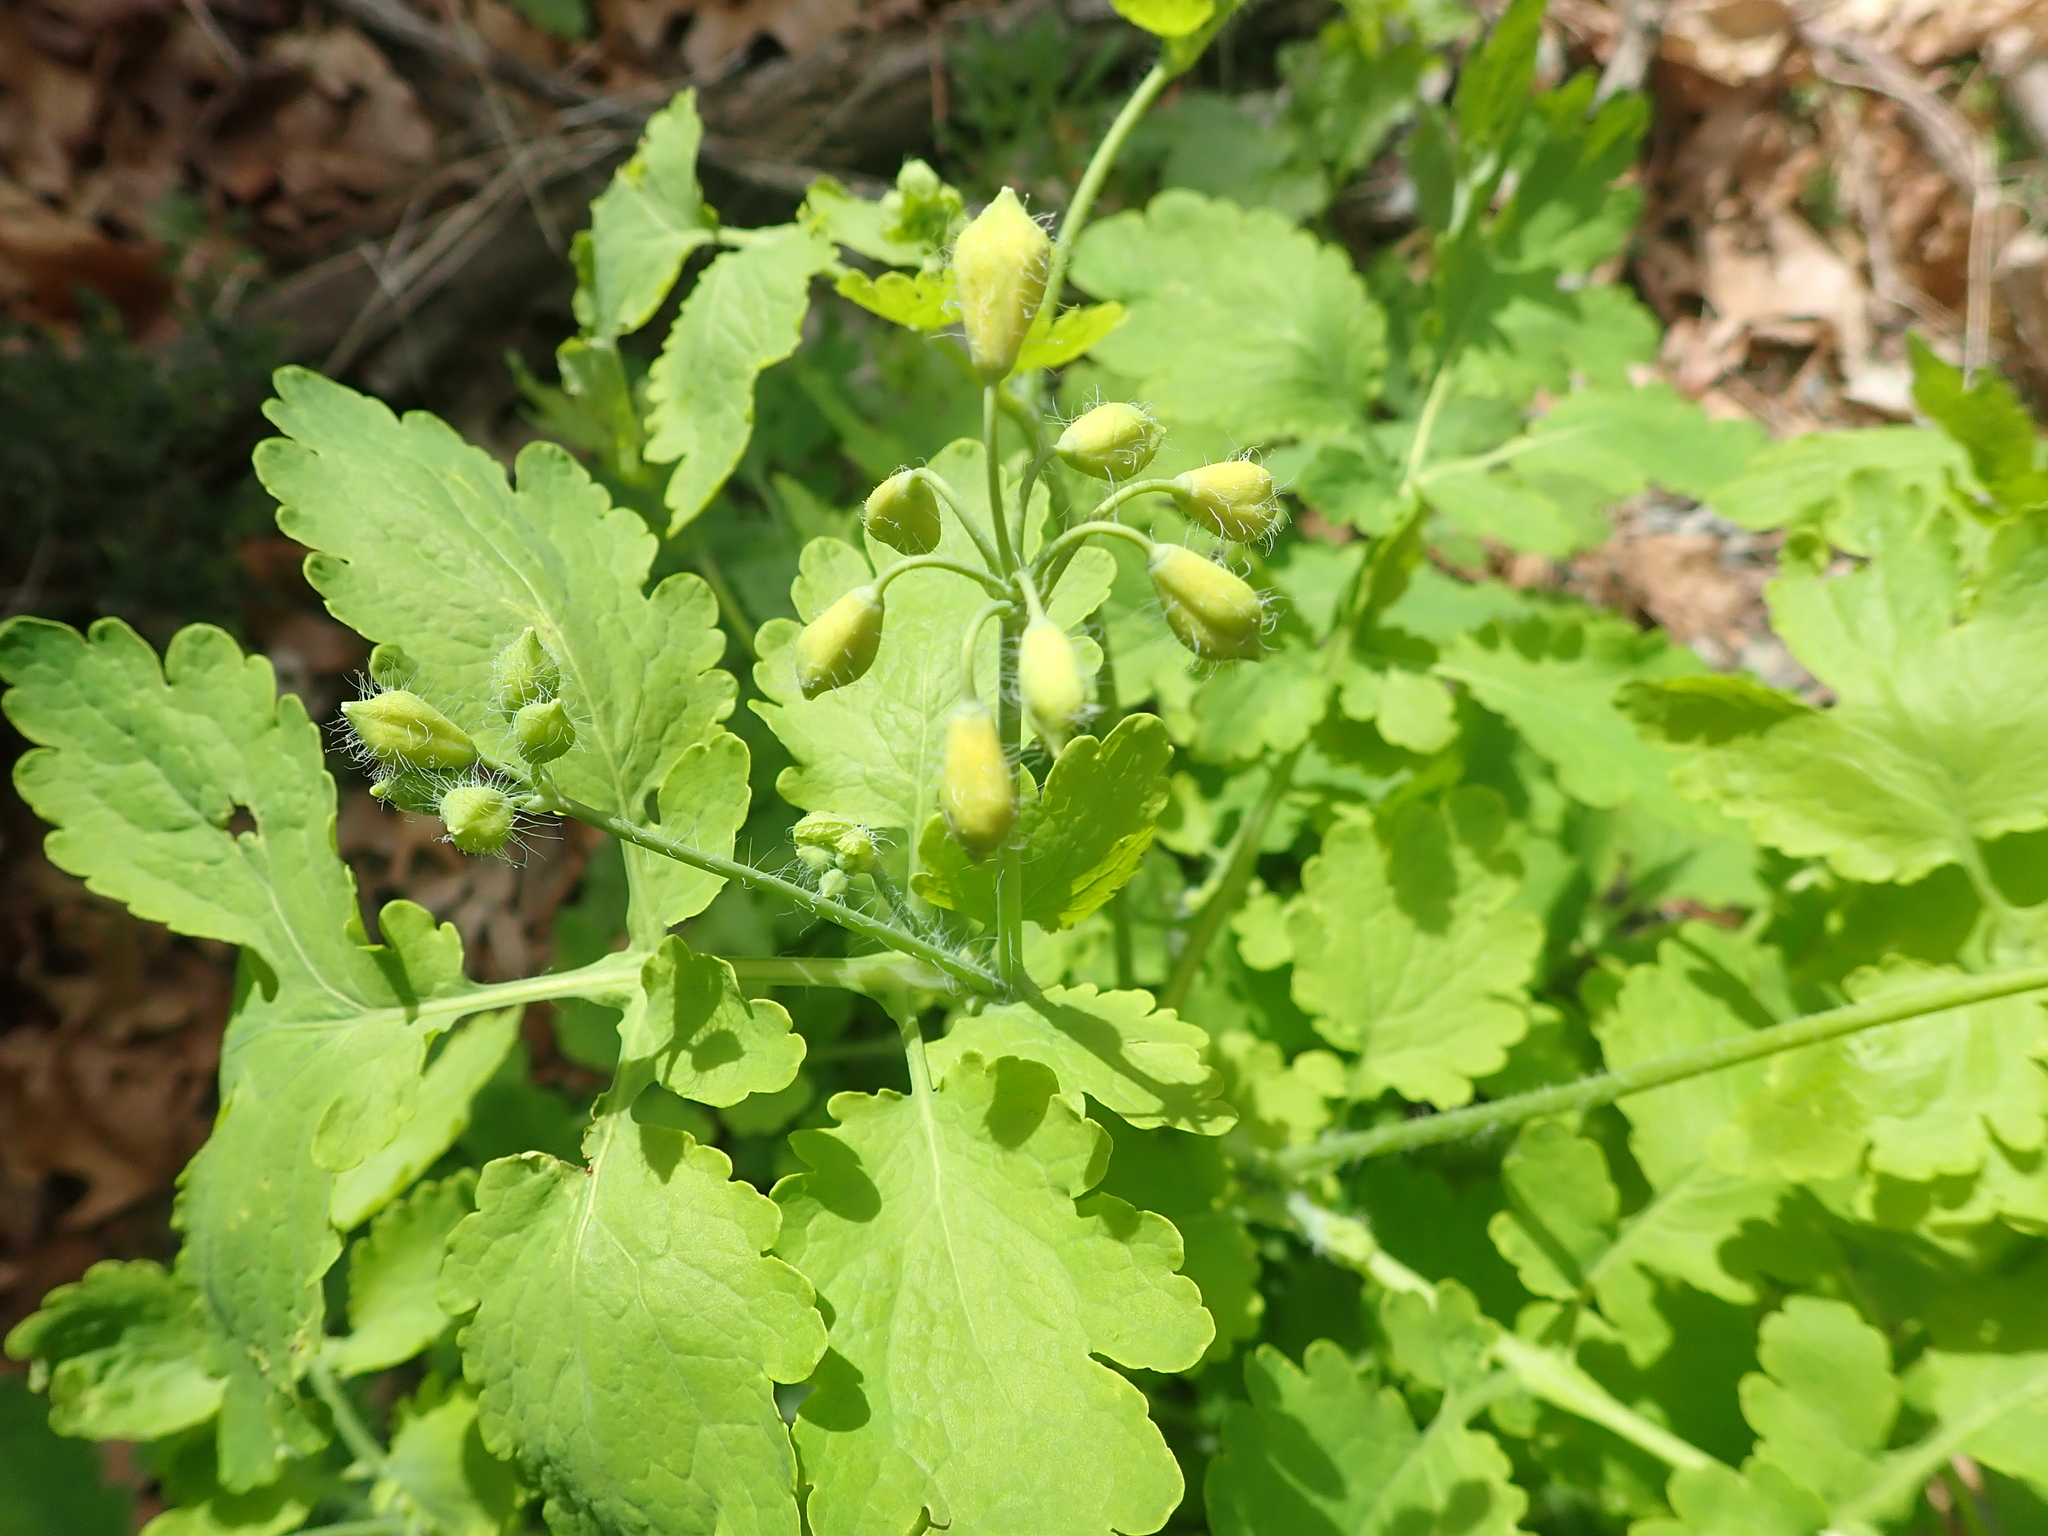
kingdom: Plantae
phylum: Tracheophyta
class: Magnoliopsida
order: Ranunculales
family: Papaveraceae
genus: Chelidonium
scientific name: Chelidonium majus
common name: Greater celandine
